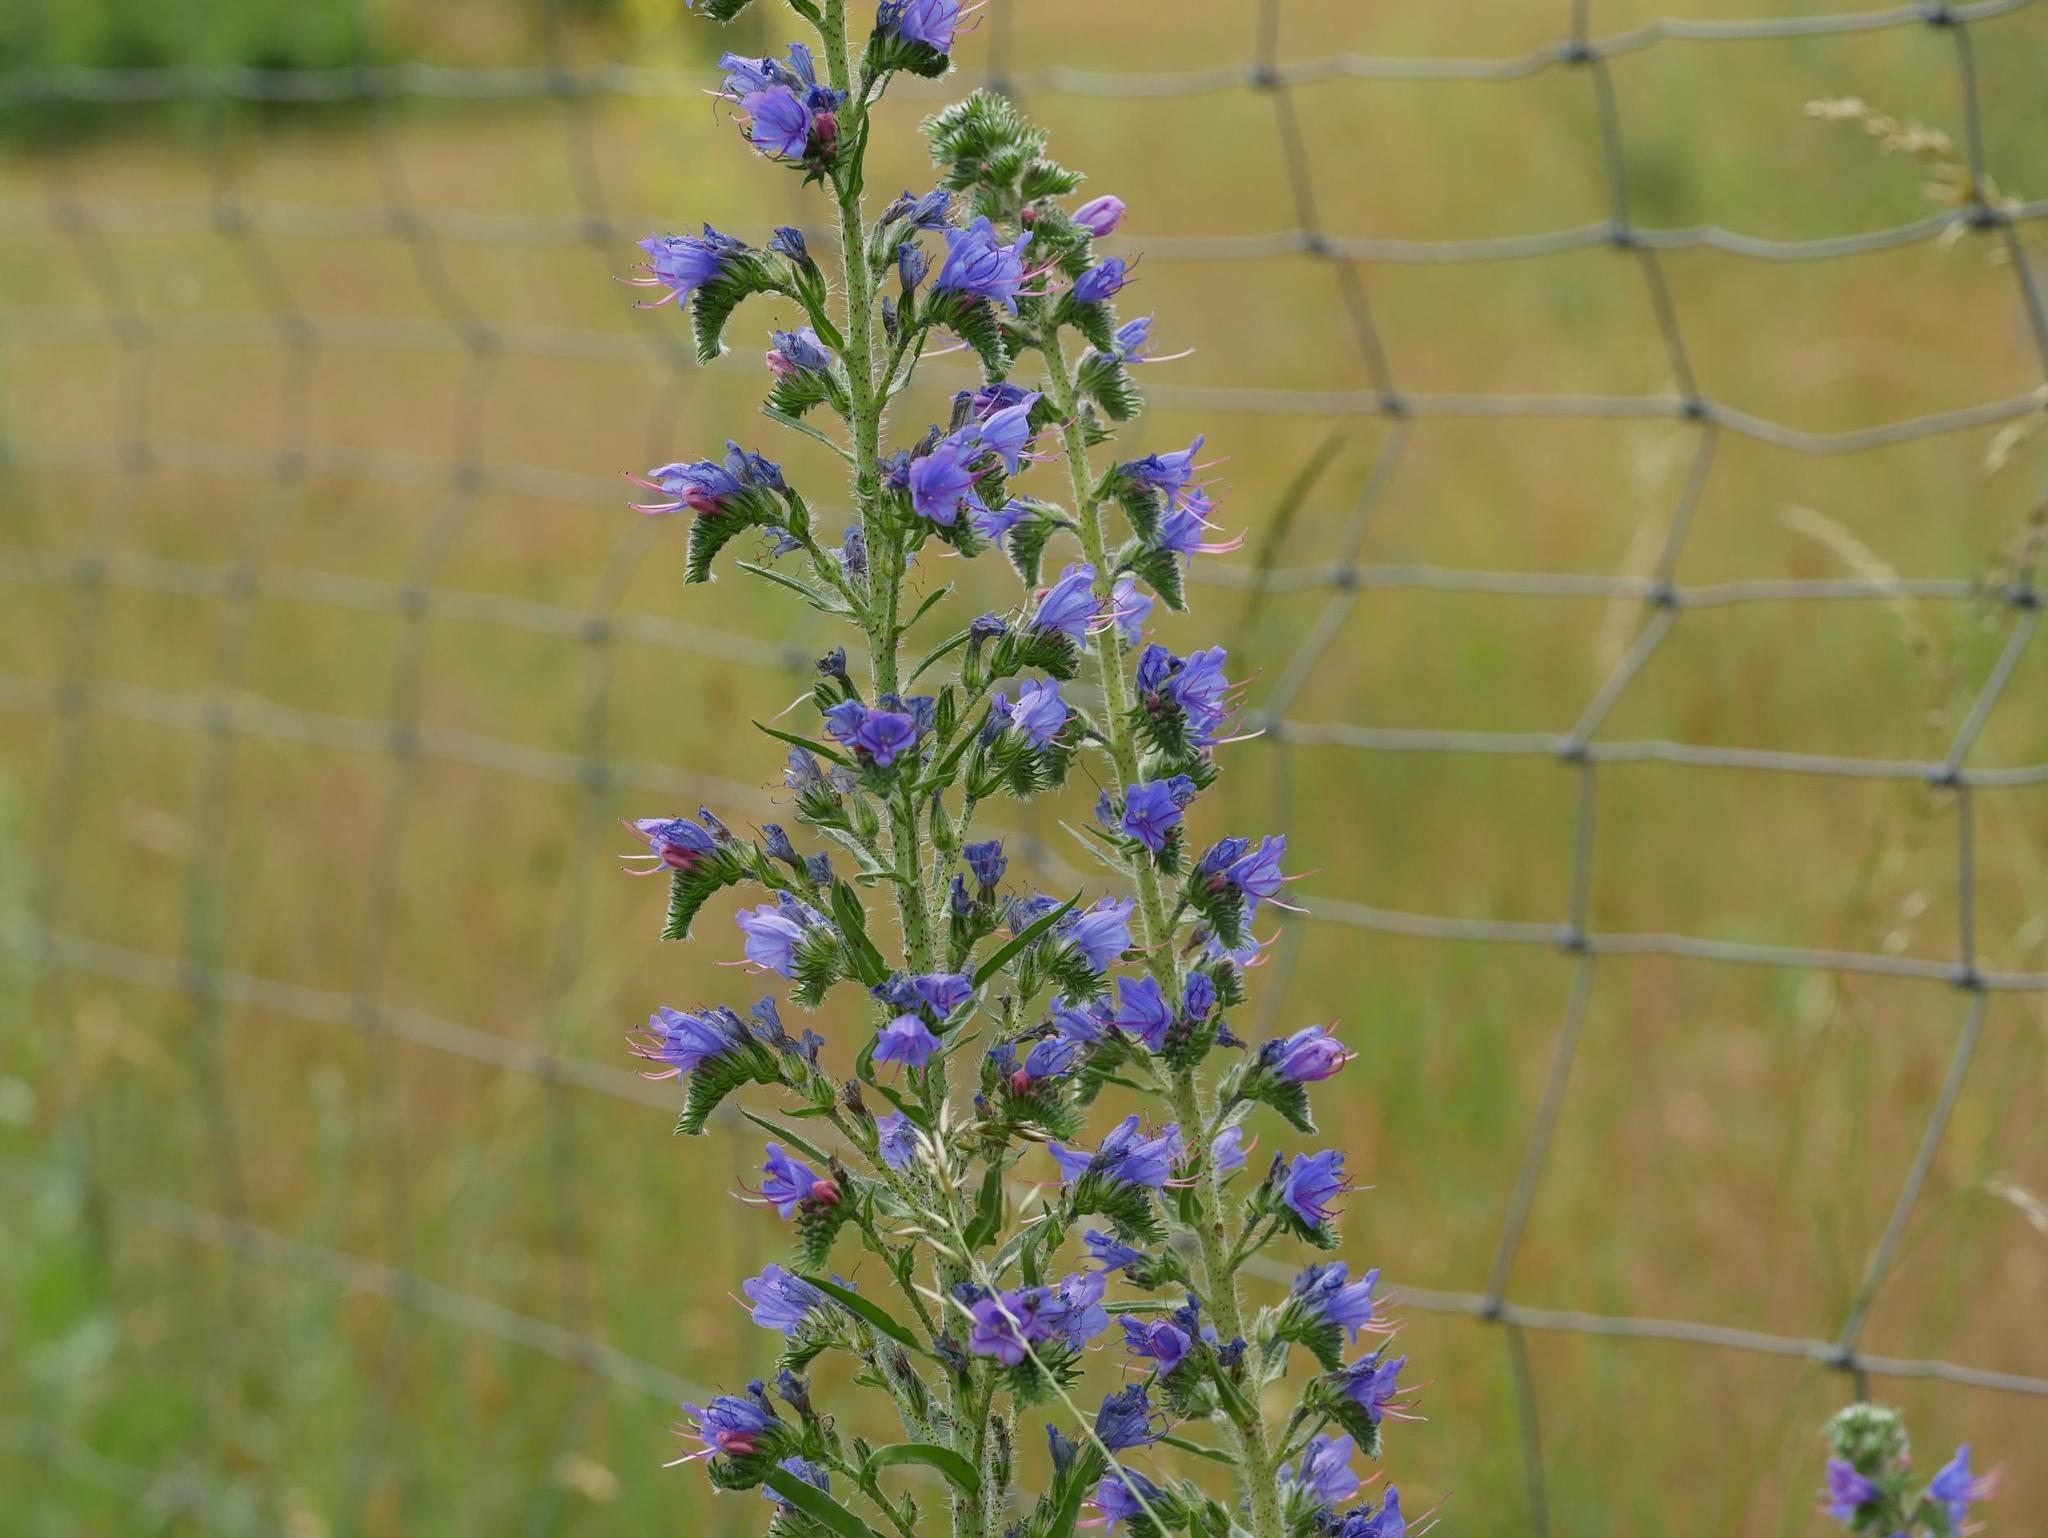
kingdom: Plantae
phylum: Tracheophyta
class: Magnoliopsida
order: Boraginales
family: Boraginaceae
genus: Echium
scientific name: Echium vulgare
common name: Common viper's bugloss
